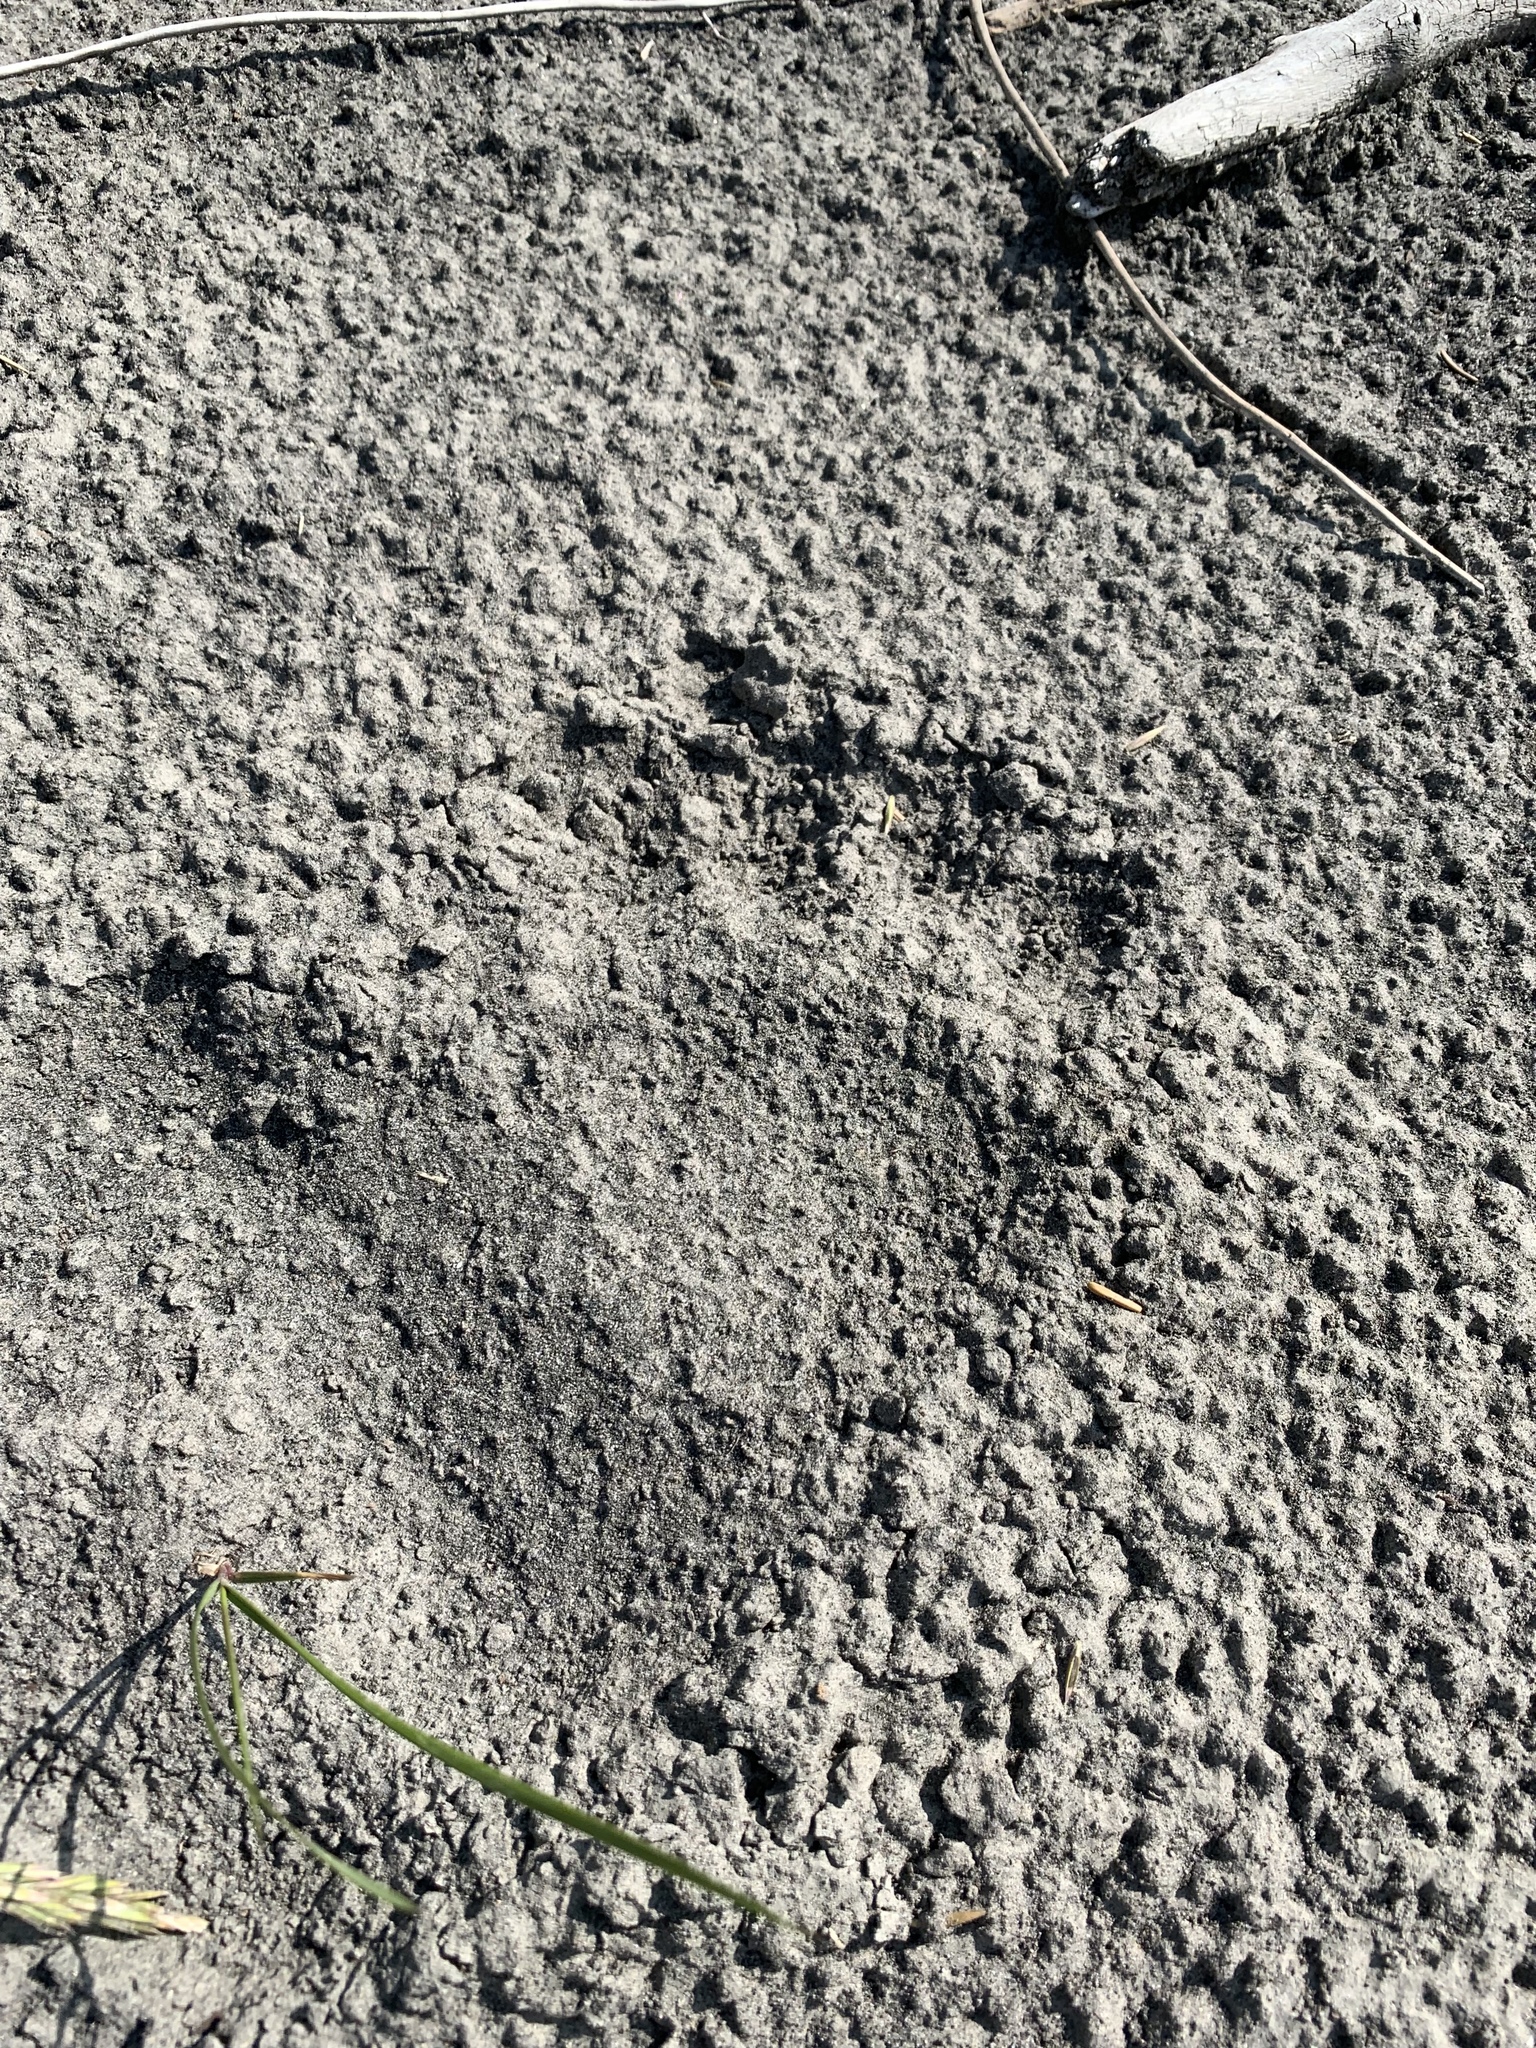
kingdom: Animalia
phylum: Chordata
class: Mammalia
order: Carnivora
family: Ursidae
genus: Ursus
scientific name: Ursus americanus
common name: American black bear
